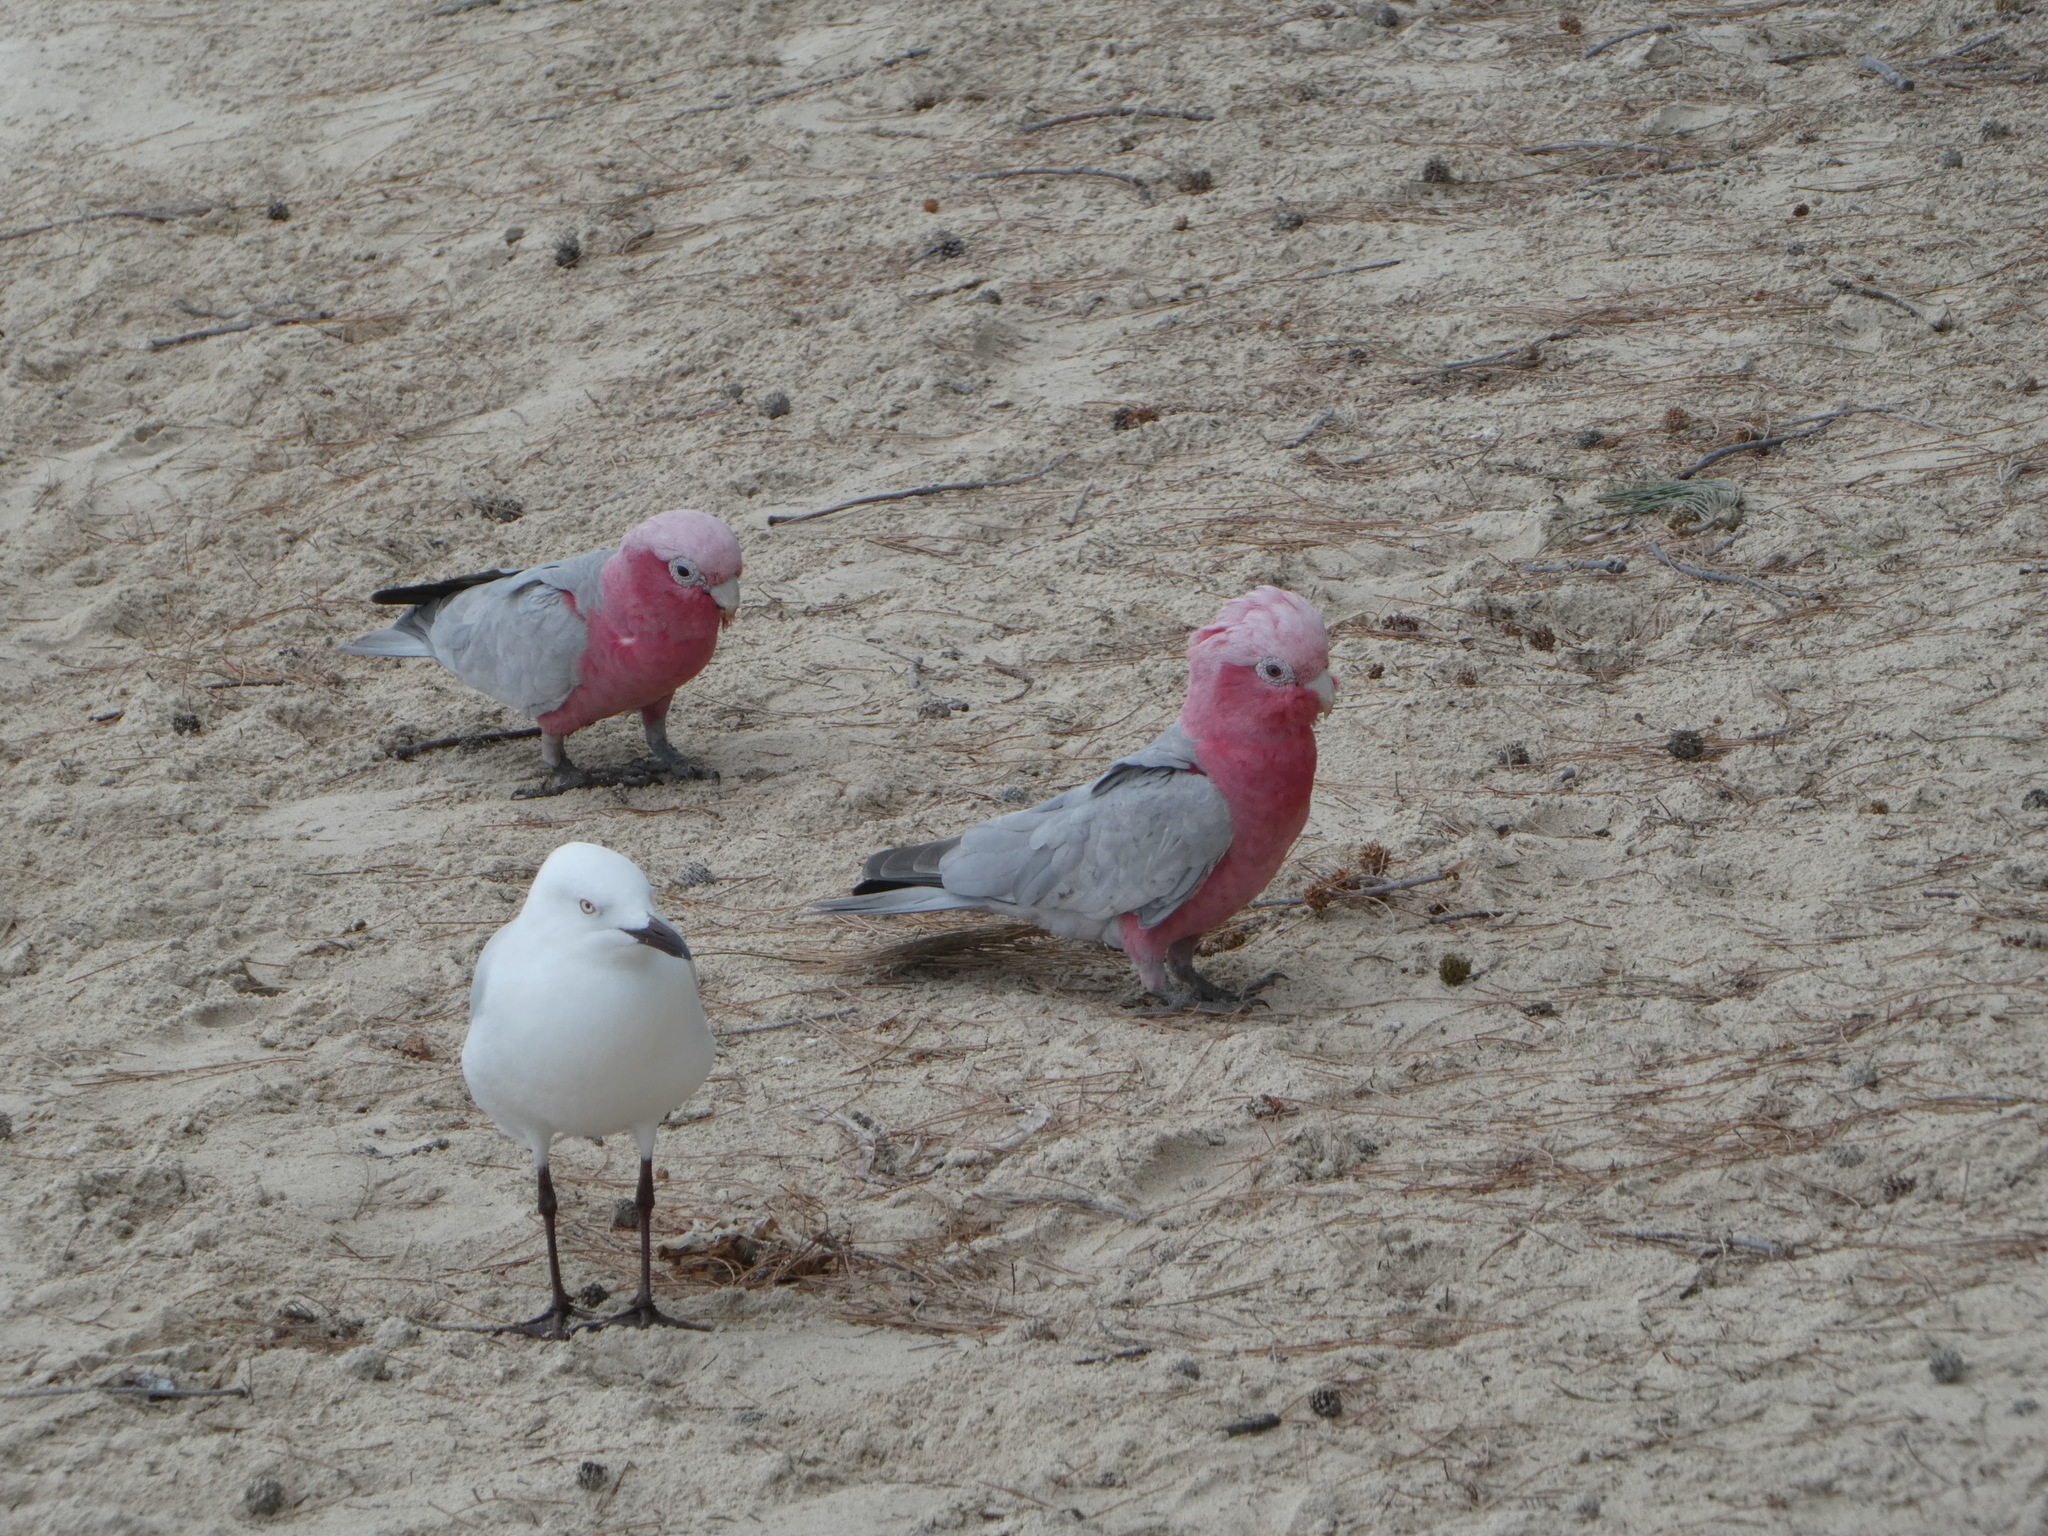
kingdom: Animalia
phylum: Chordata
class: Aves
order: Psittaciformes
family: Psittacidae
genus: Eolophus
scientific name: Eolophus roseicapilla
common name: Galah
